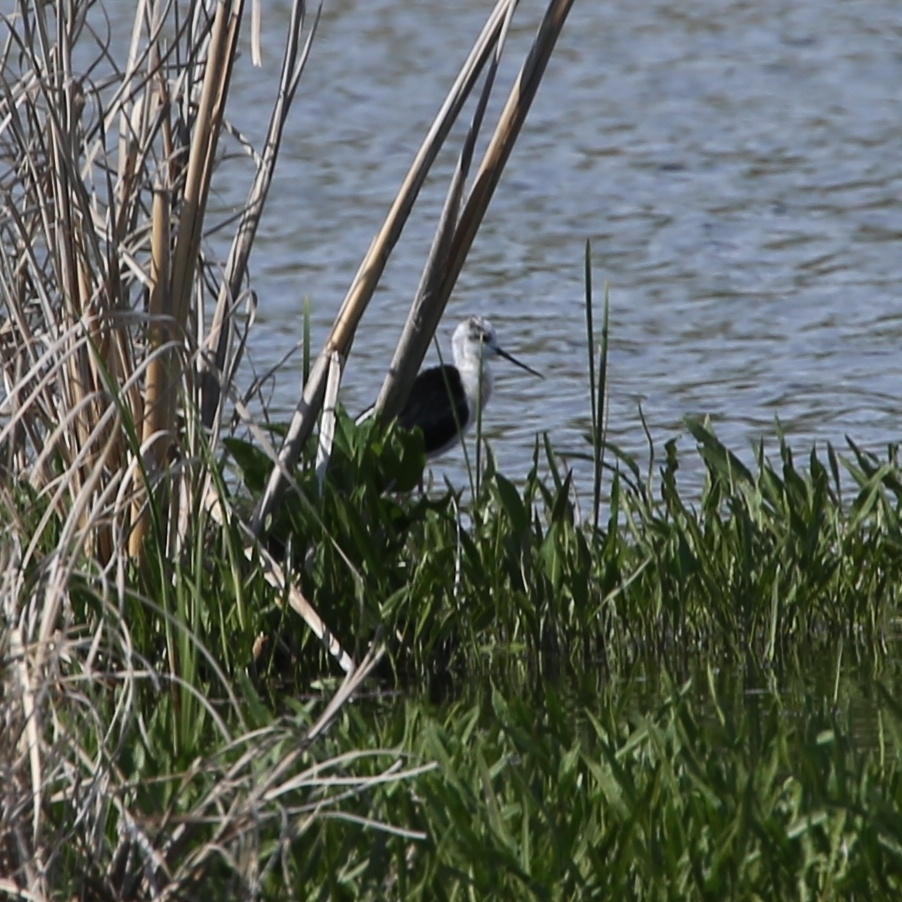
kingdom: Animalia
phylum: Chordata
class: Aves
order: Charadriiformes
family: Recurvirostridae
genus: Himantopus
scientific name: Himantopus himantopus
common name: Black-winged stilt
